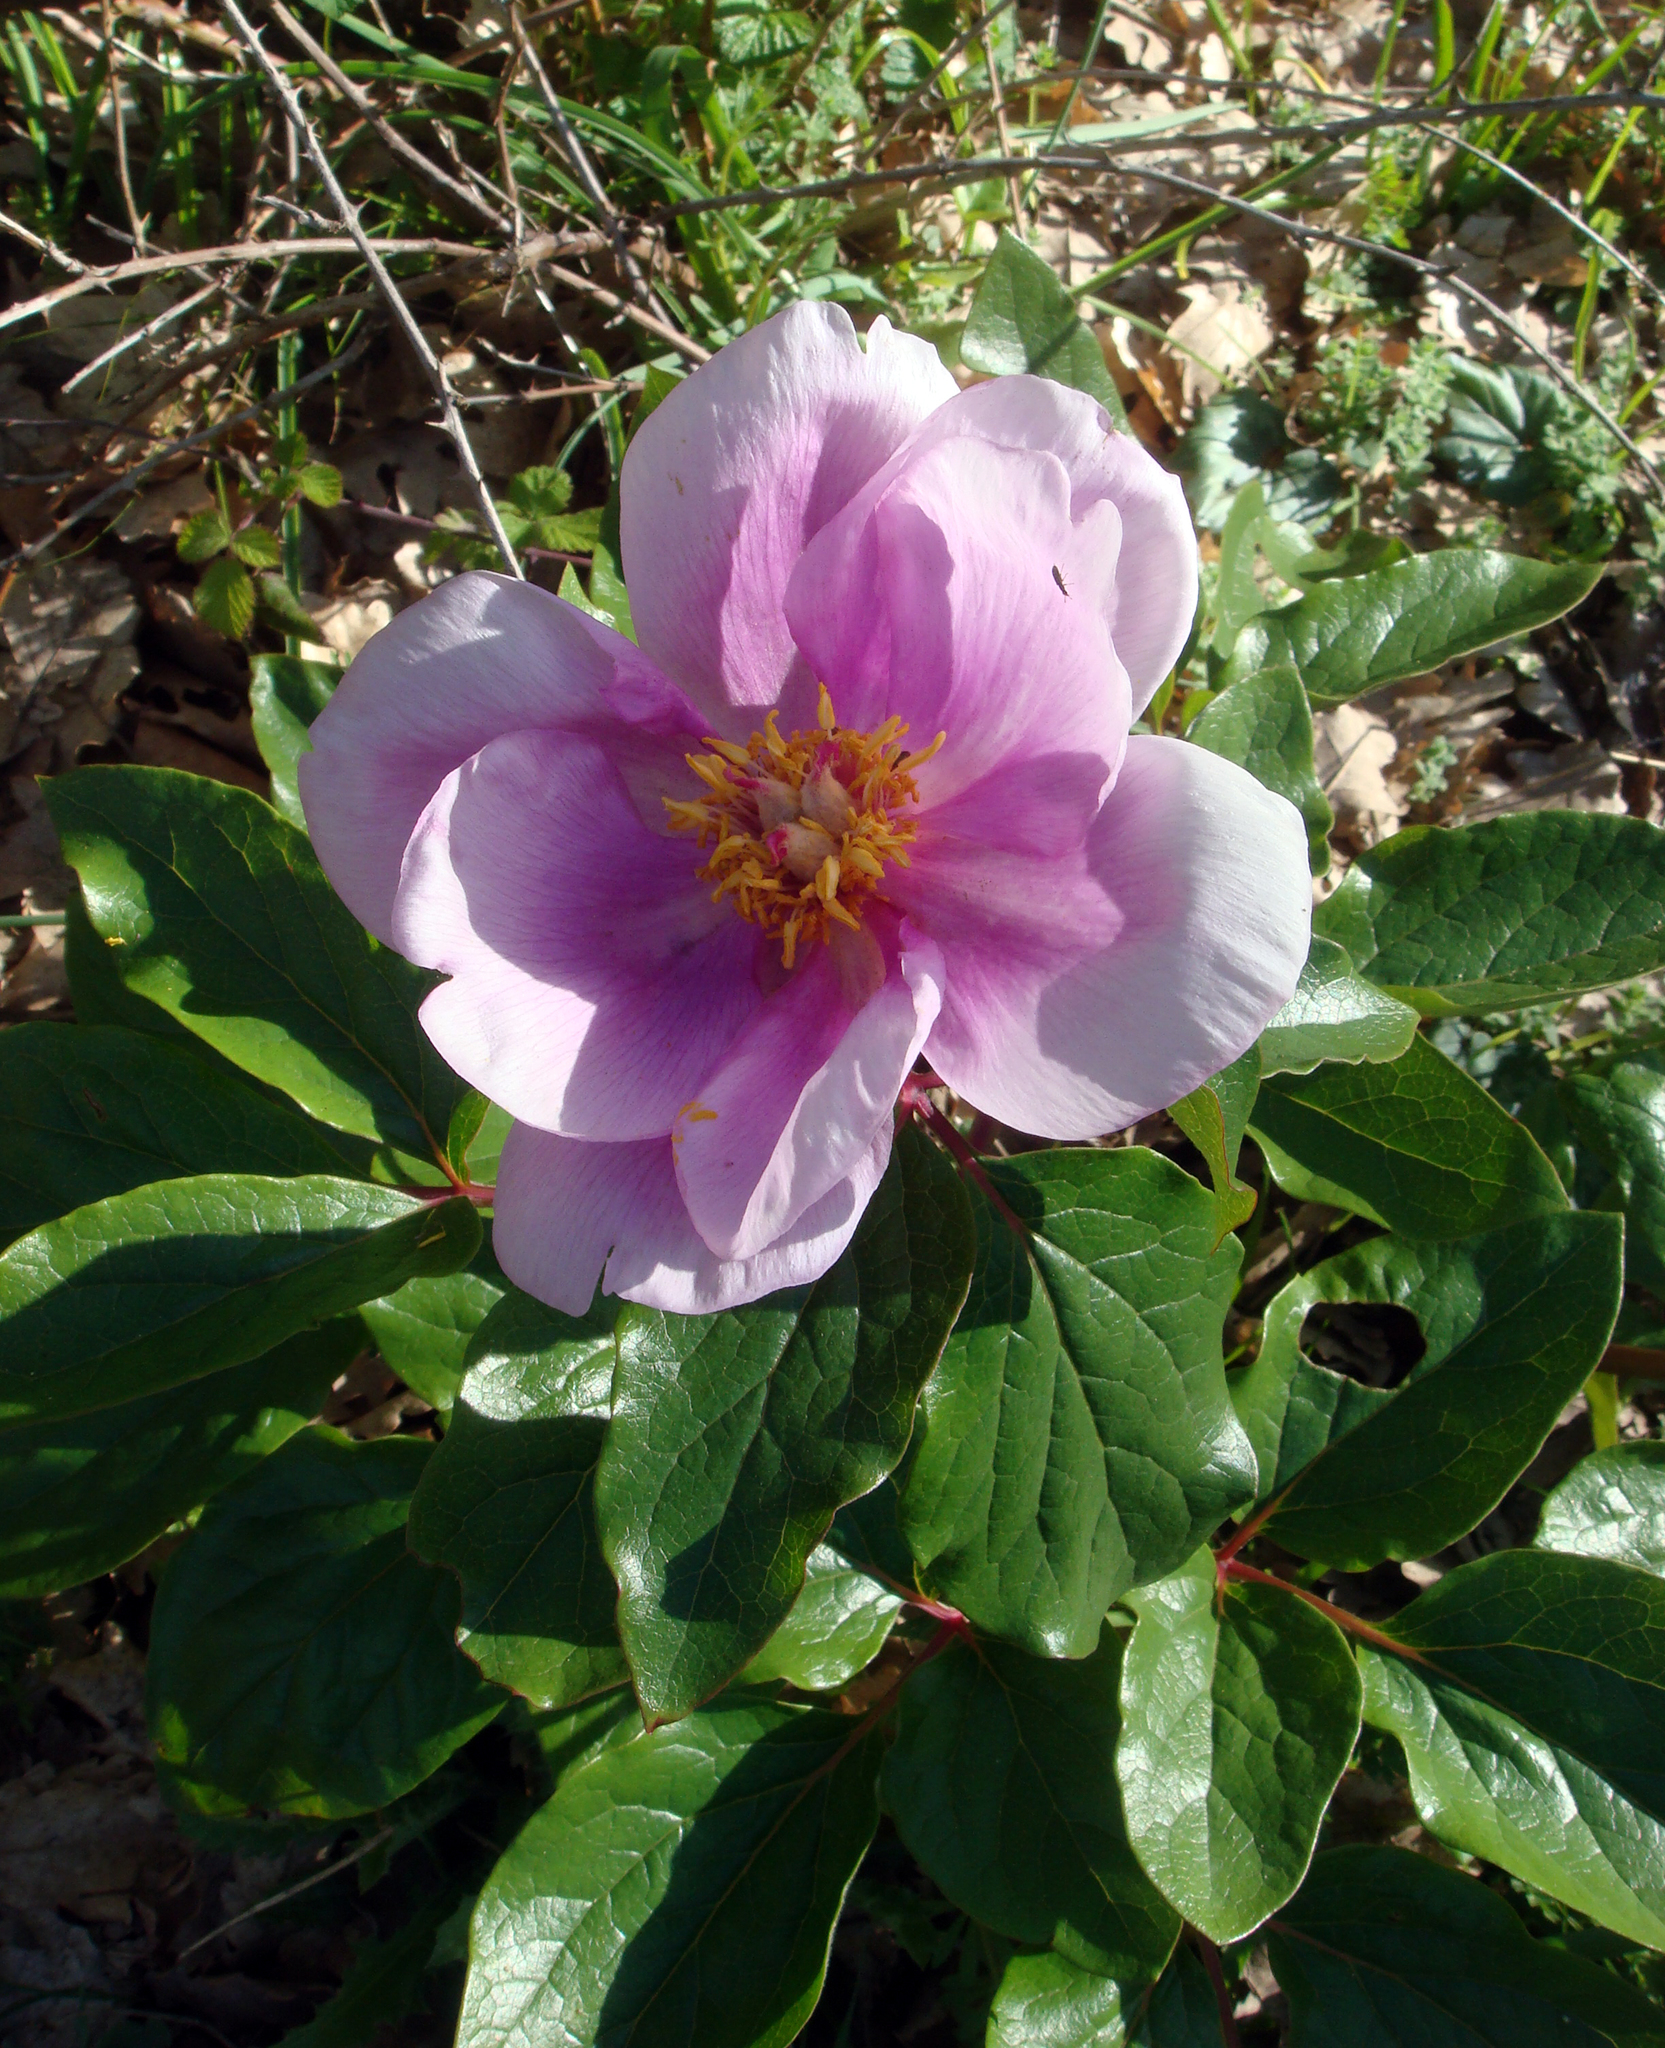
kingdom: Plantae
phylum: Tracheophyta
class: Magnoliopsida
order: Saxifragales
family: Paeoniaceae
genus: Paeonia
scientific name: Paeonia corsica
